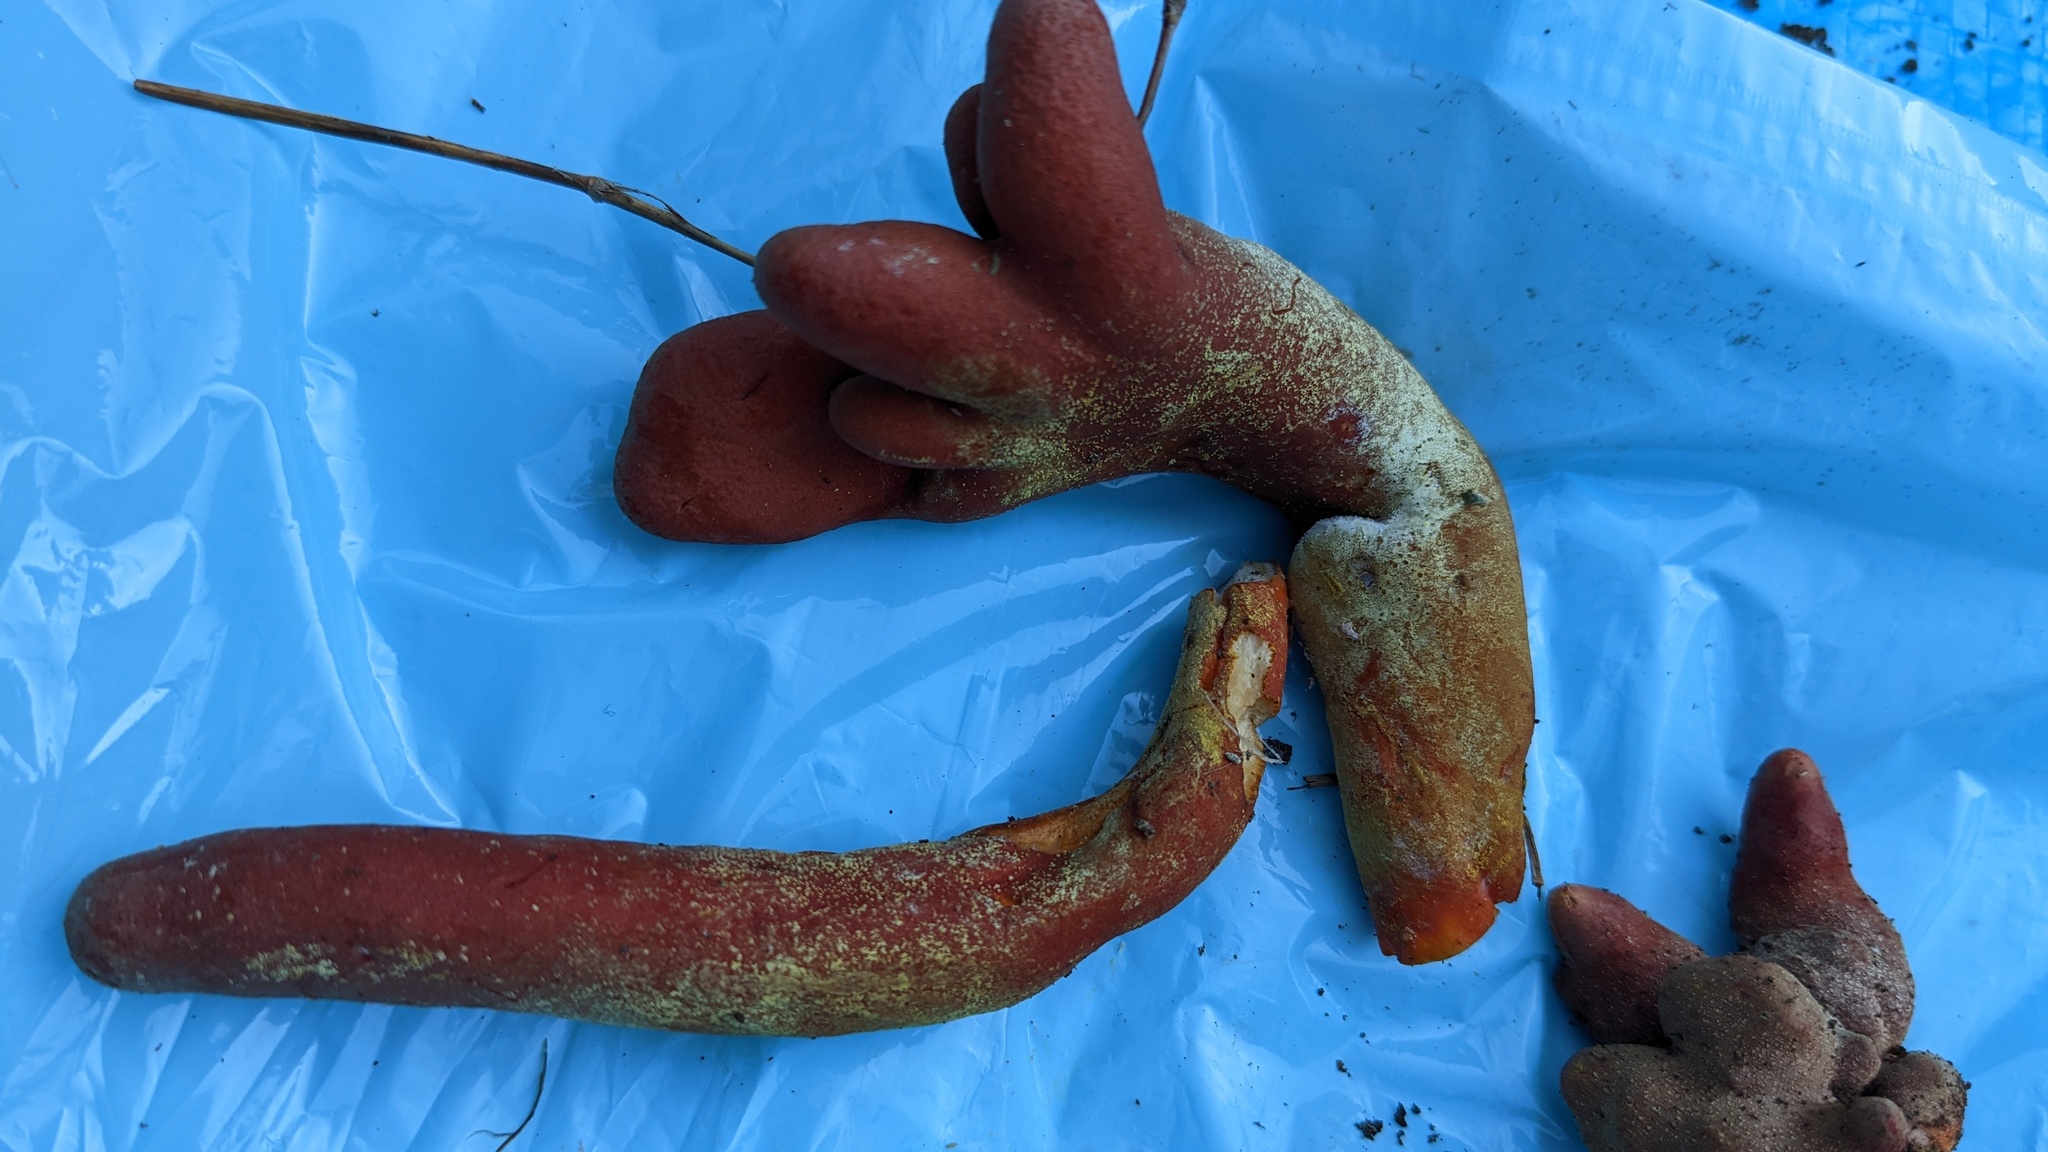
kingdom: Fungi
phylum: Ascomycota
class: Sordariomycetes
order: Hypocreales
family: Hypocreaceae
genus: Trichoderma
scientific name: Trichoderma cornu-damae
